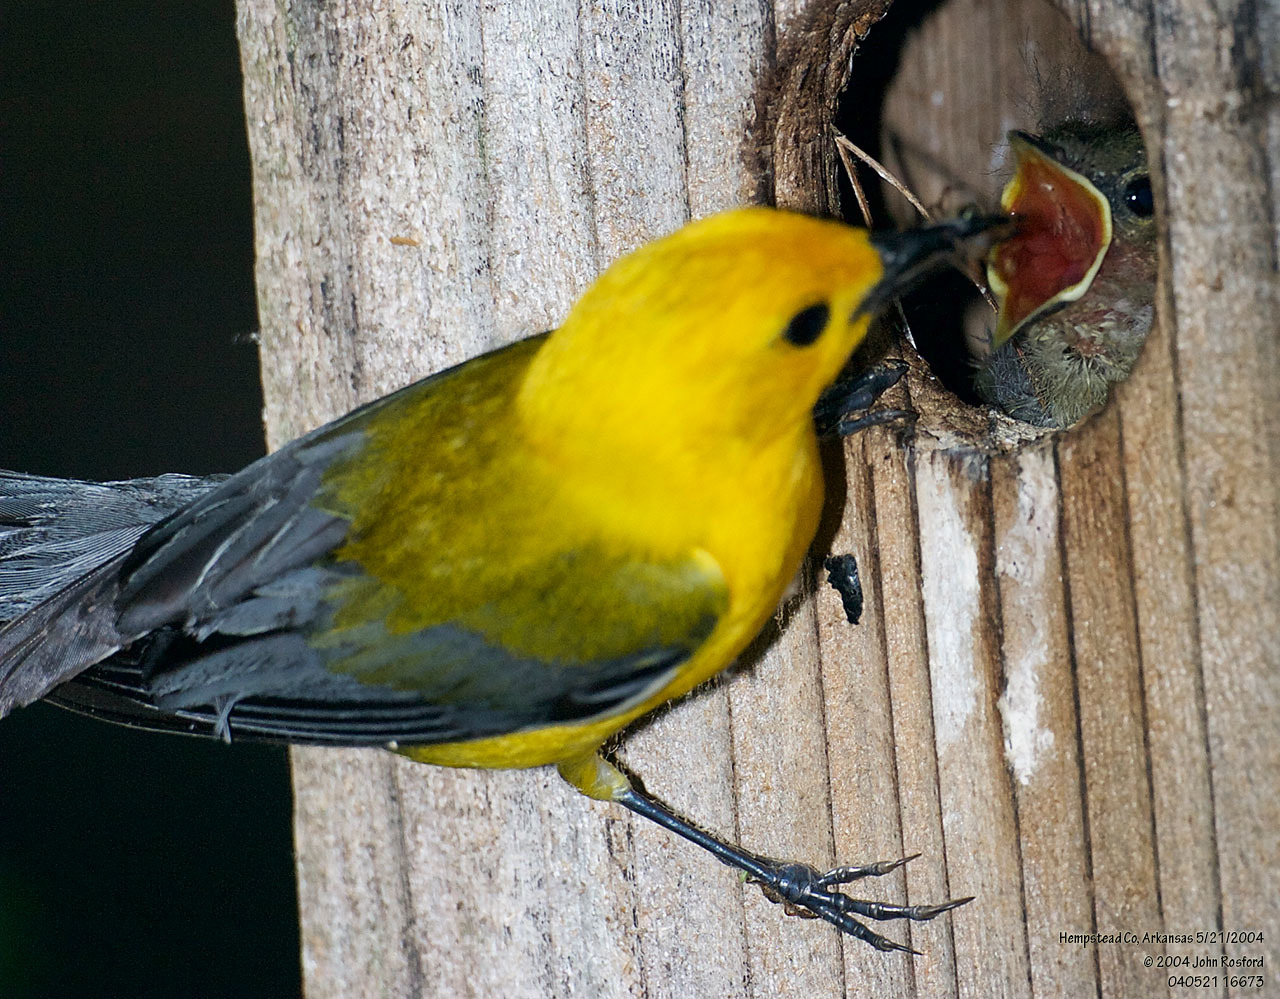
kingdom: Animalia
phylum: Chordata
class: Aves
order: Passeriformes
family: Parulidae
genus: Protonotaria
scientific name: Protonotaria citrea
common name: Prothonotary warbler
